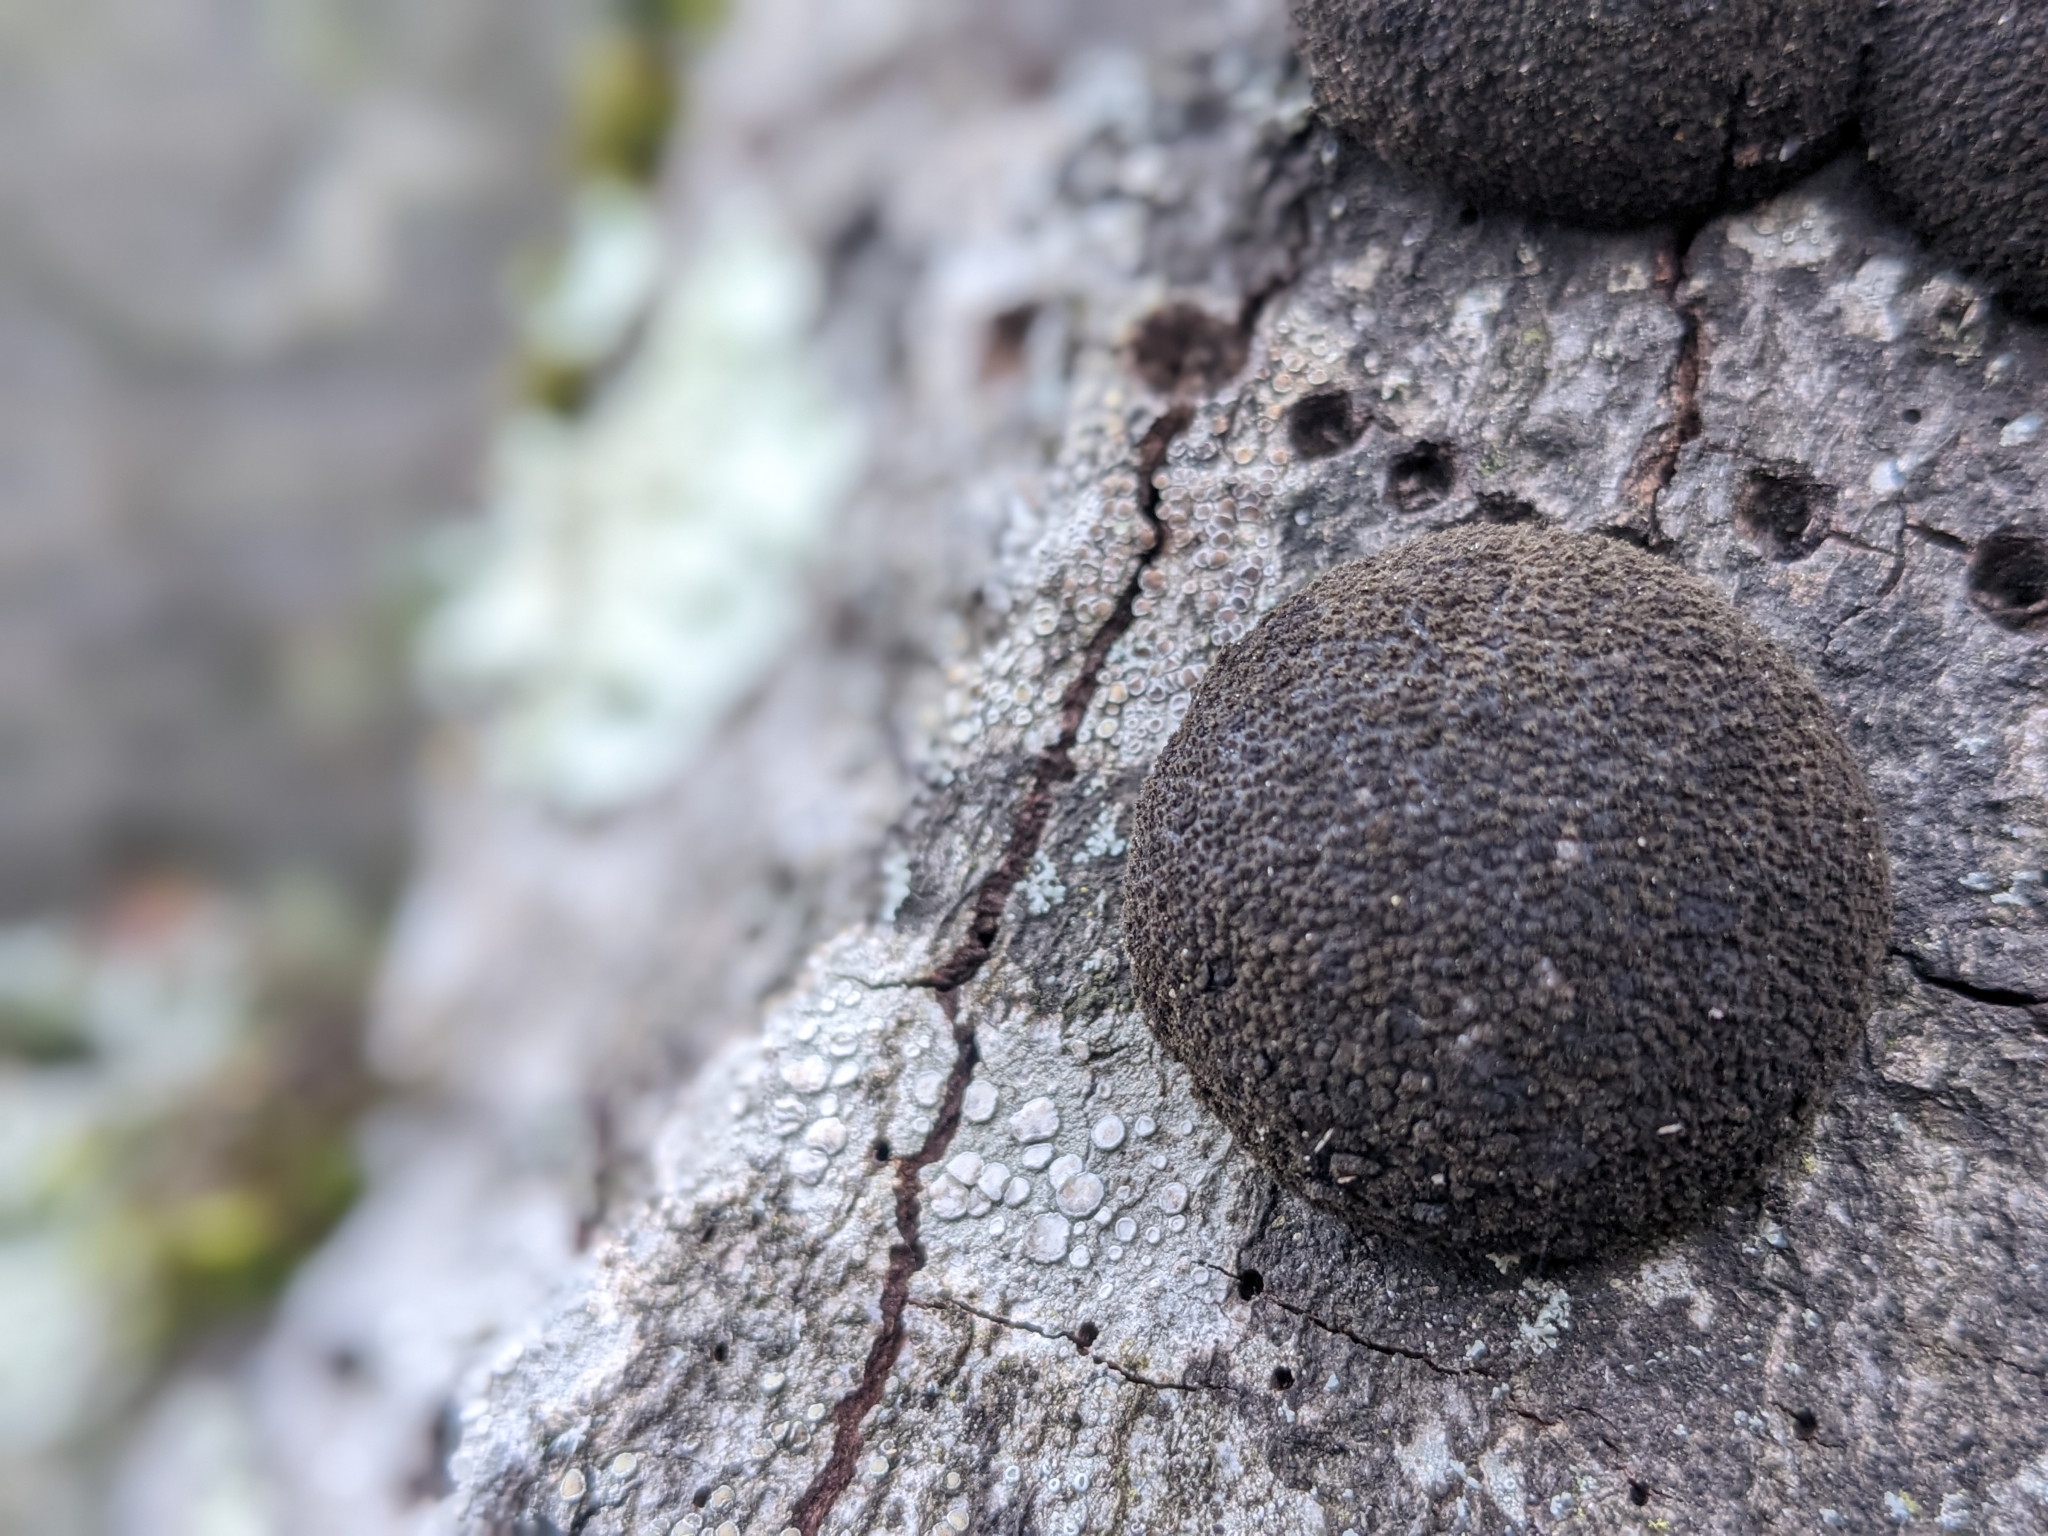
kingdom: Fungi
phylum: Ascomycota
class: Sordariomycetes
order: Xylariales
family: Hypoxylaceae
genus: Annulohypoxylon
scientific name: Annulohypoxylon thouarsianum
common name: Cramp balls
